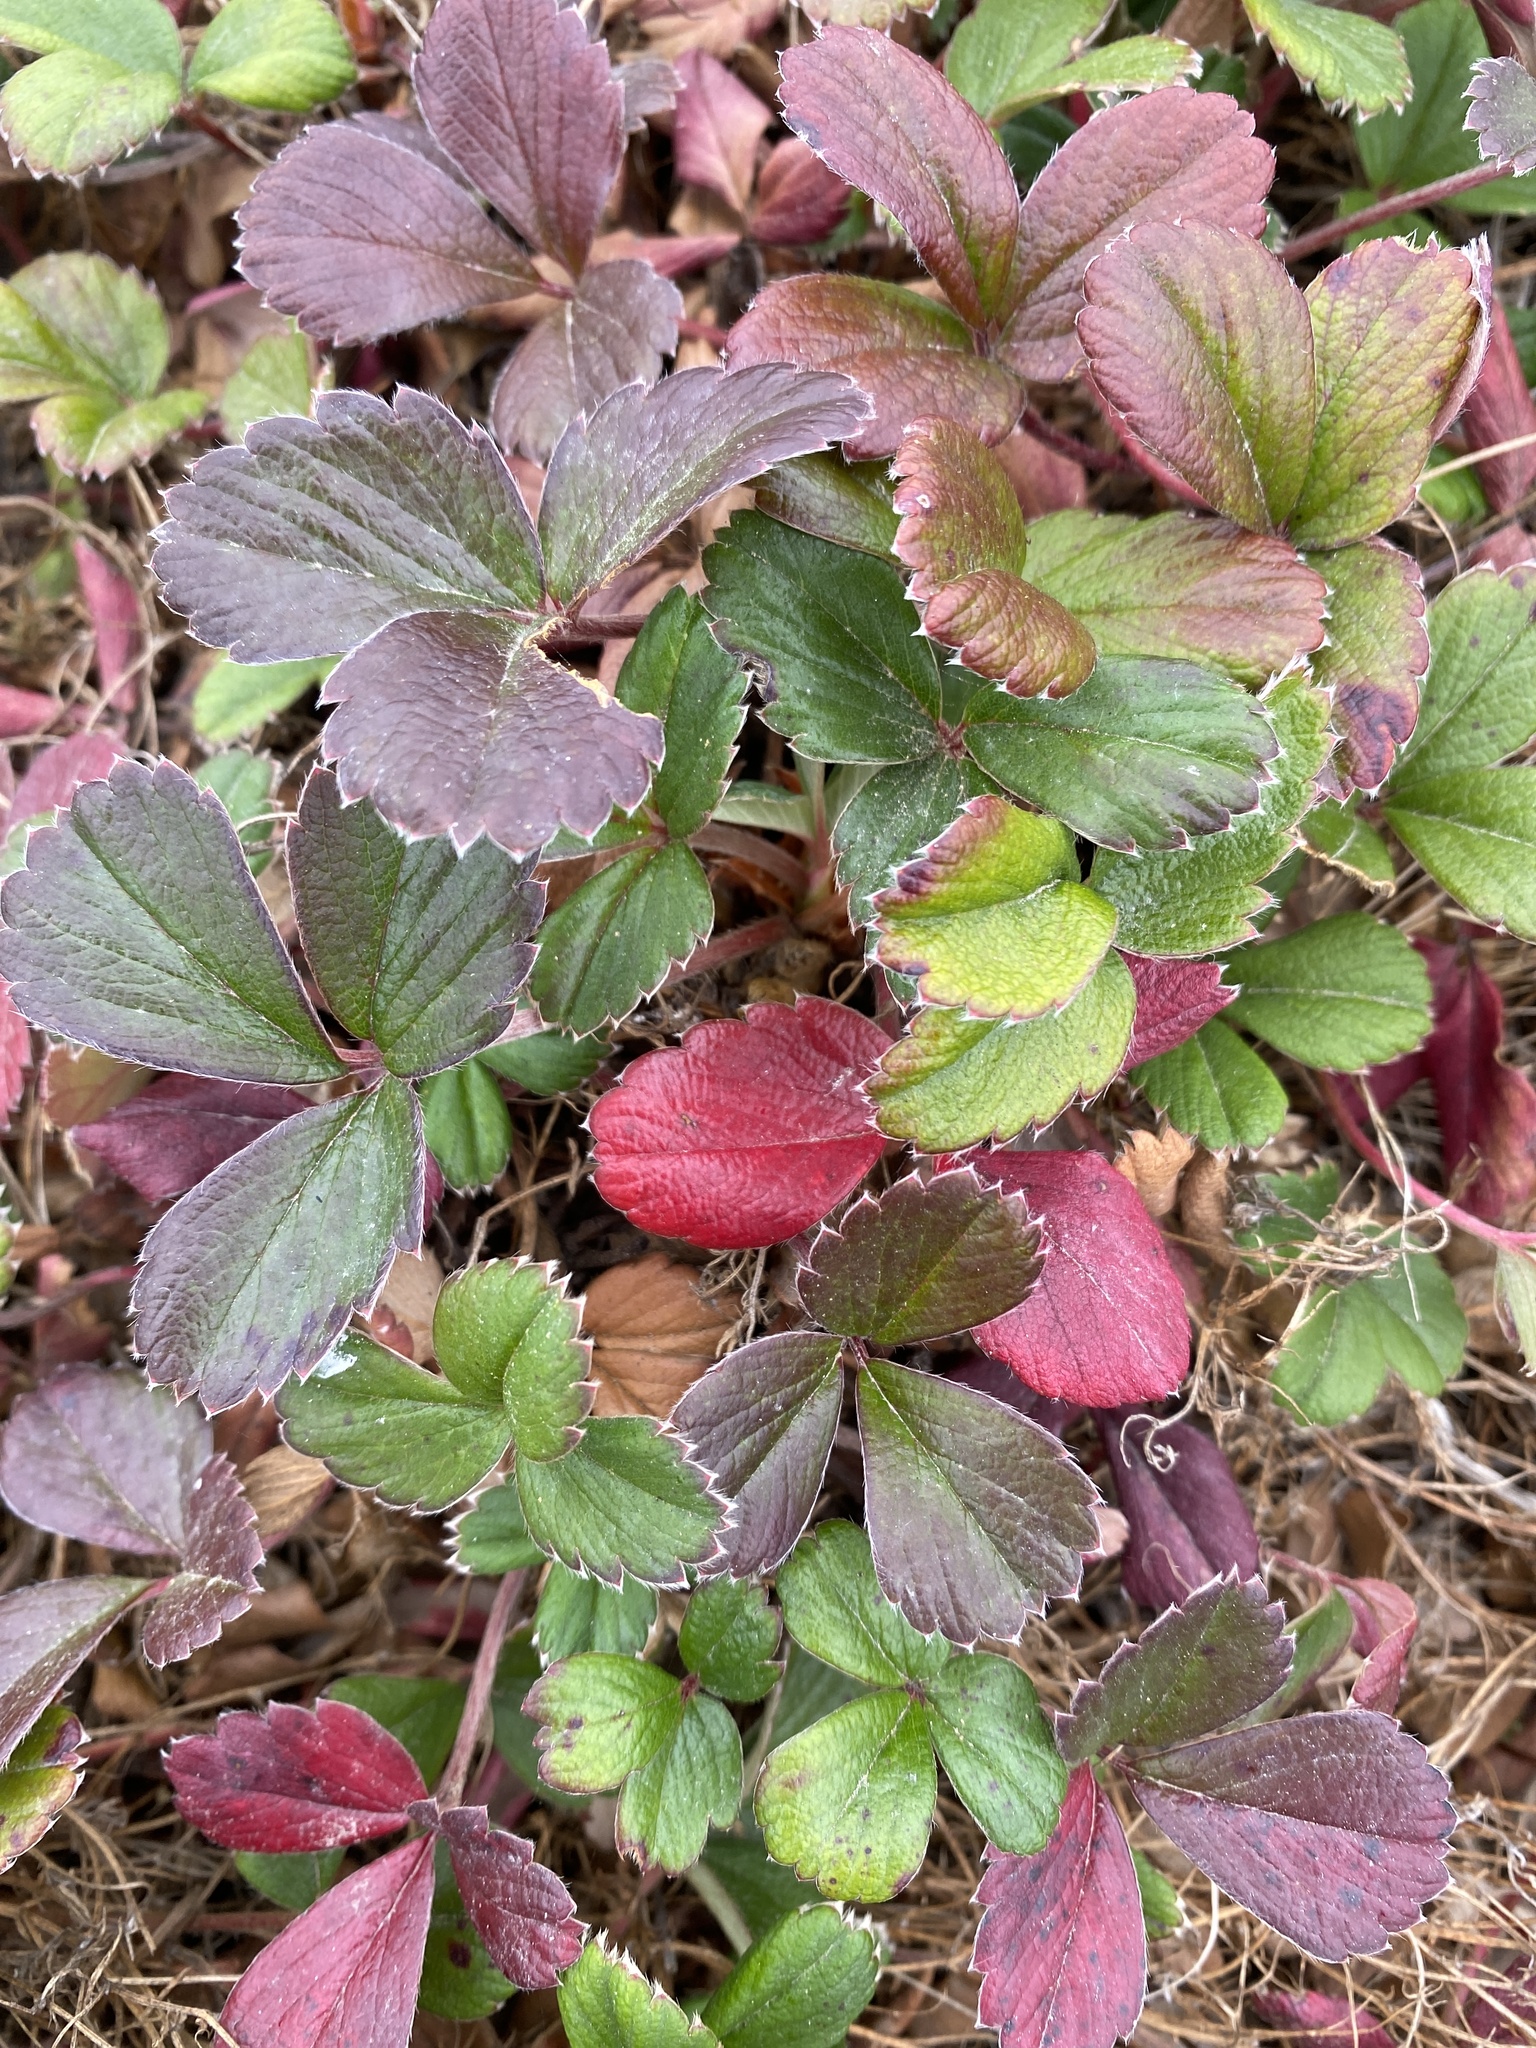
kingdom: Plantae
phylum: Tracheophyta
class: Magnoliopsida
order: Rosales
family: Rosaceae
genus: Fragaria
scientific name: Fragaria chiloensis
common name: Beach strawberry
